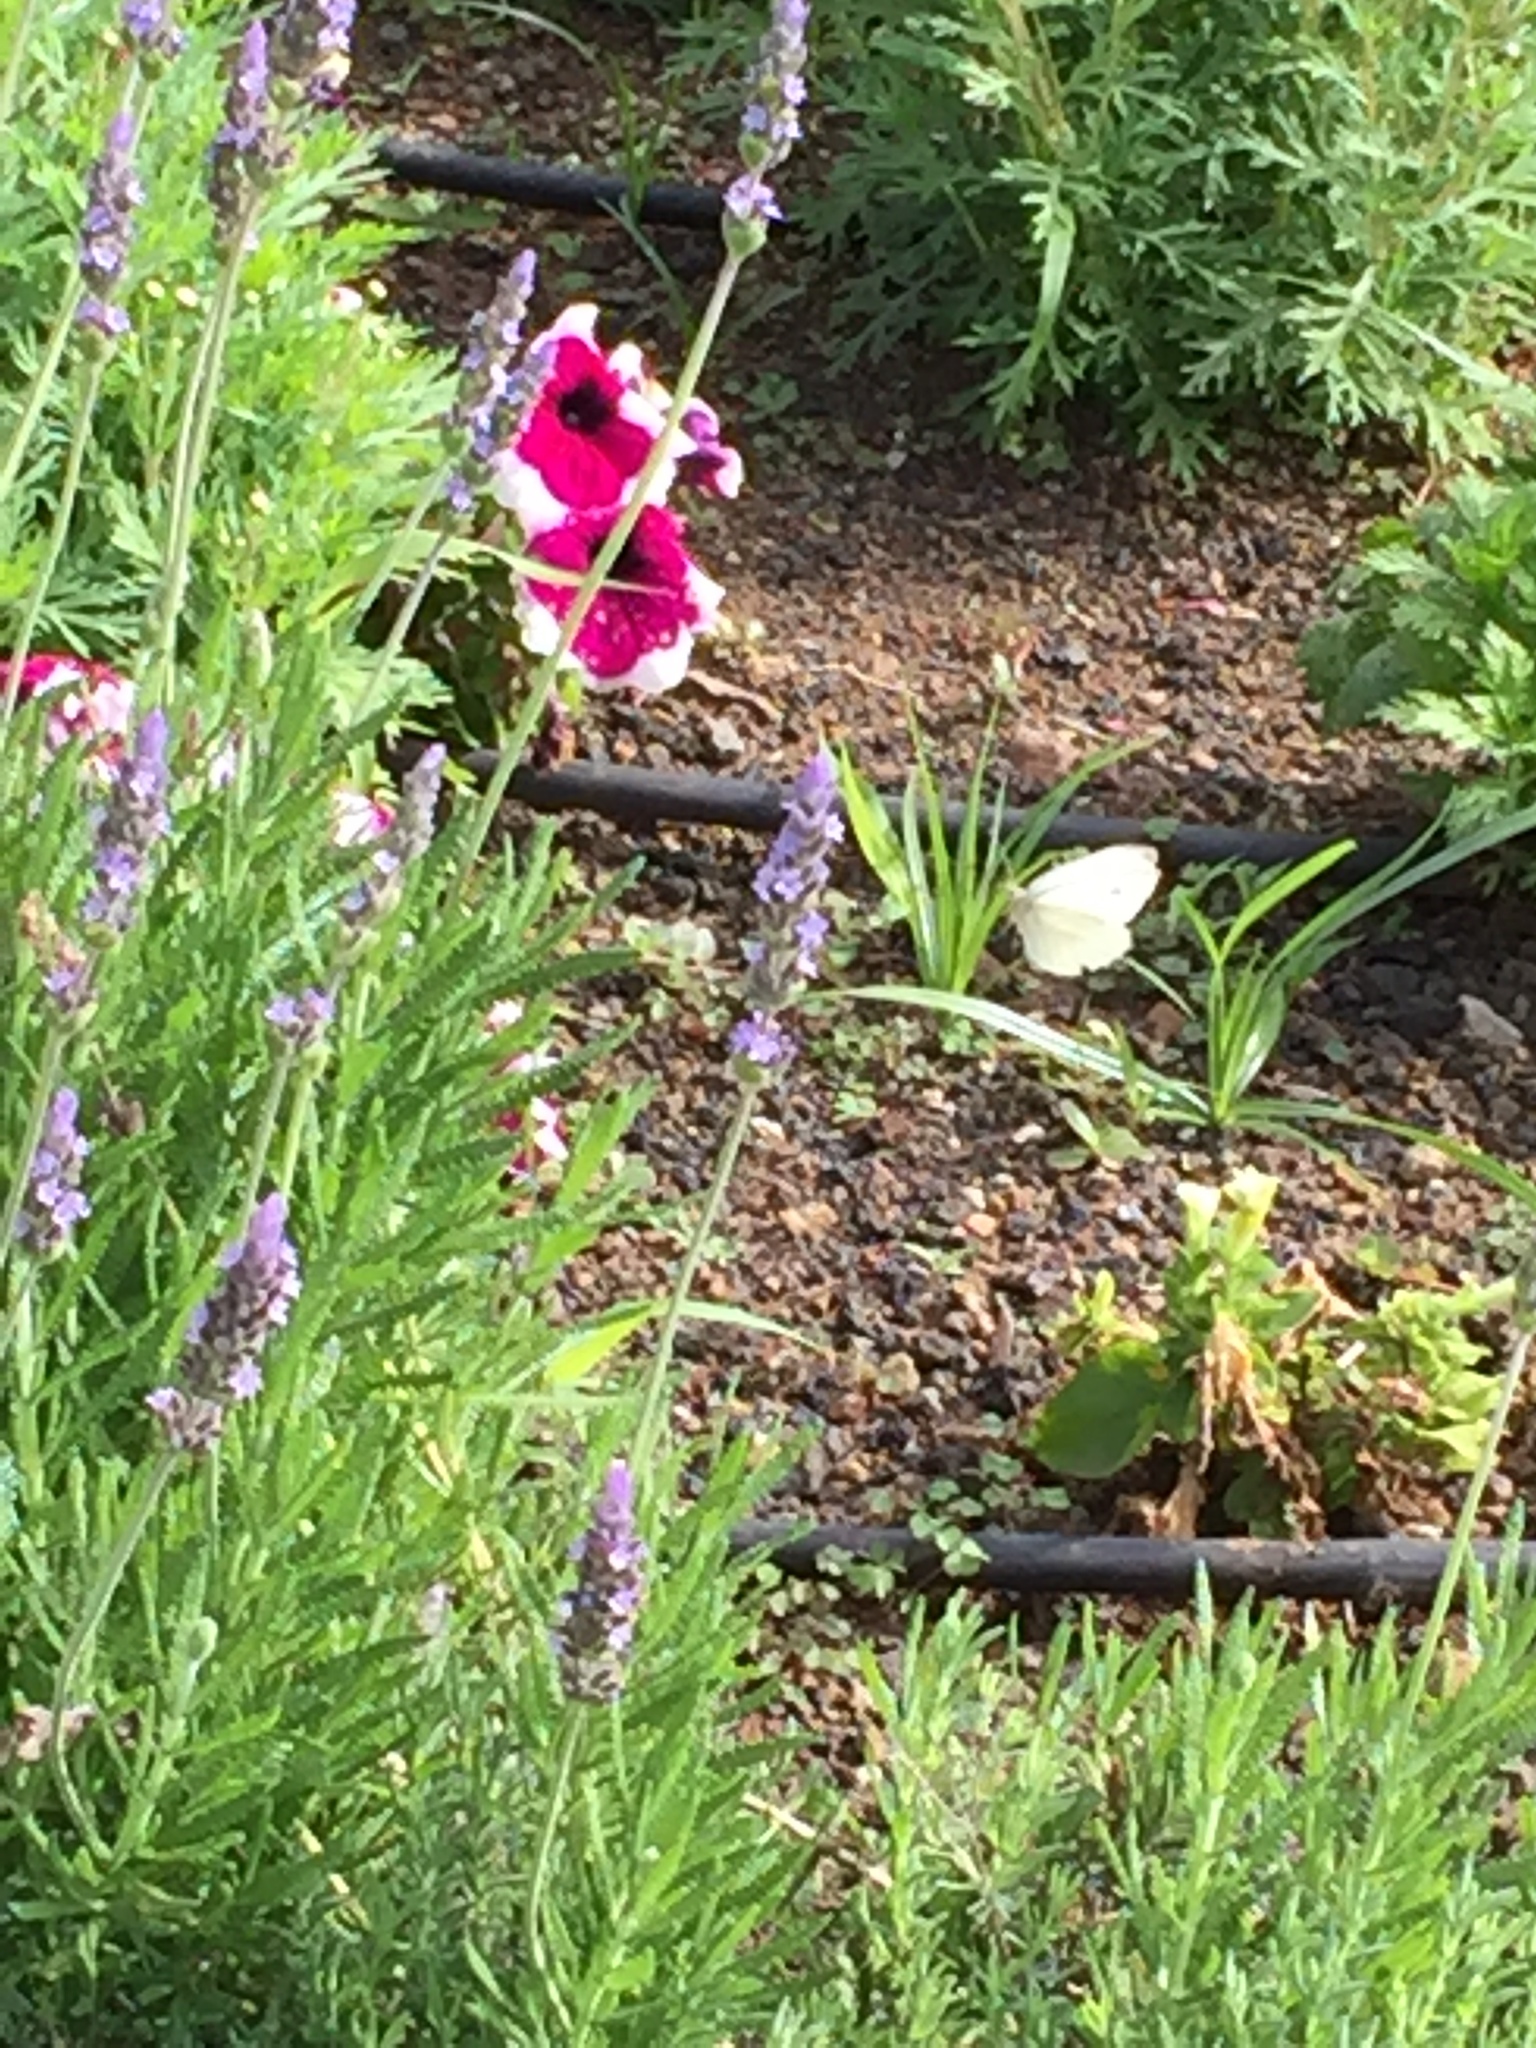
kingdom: Animalia
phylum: Arthropoda
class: Insecta
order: Lepidoptera
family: Pieridae
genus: Pieris
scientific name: Pieris rapae
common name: Small white
